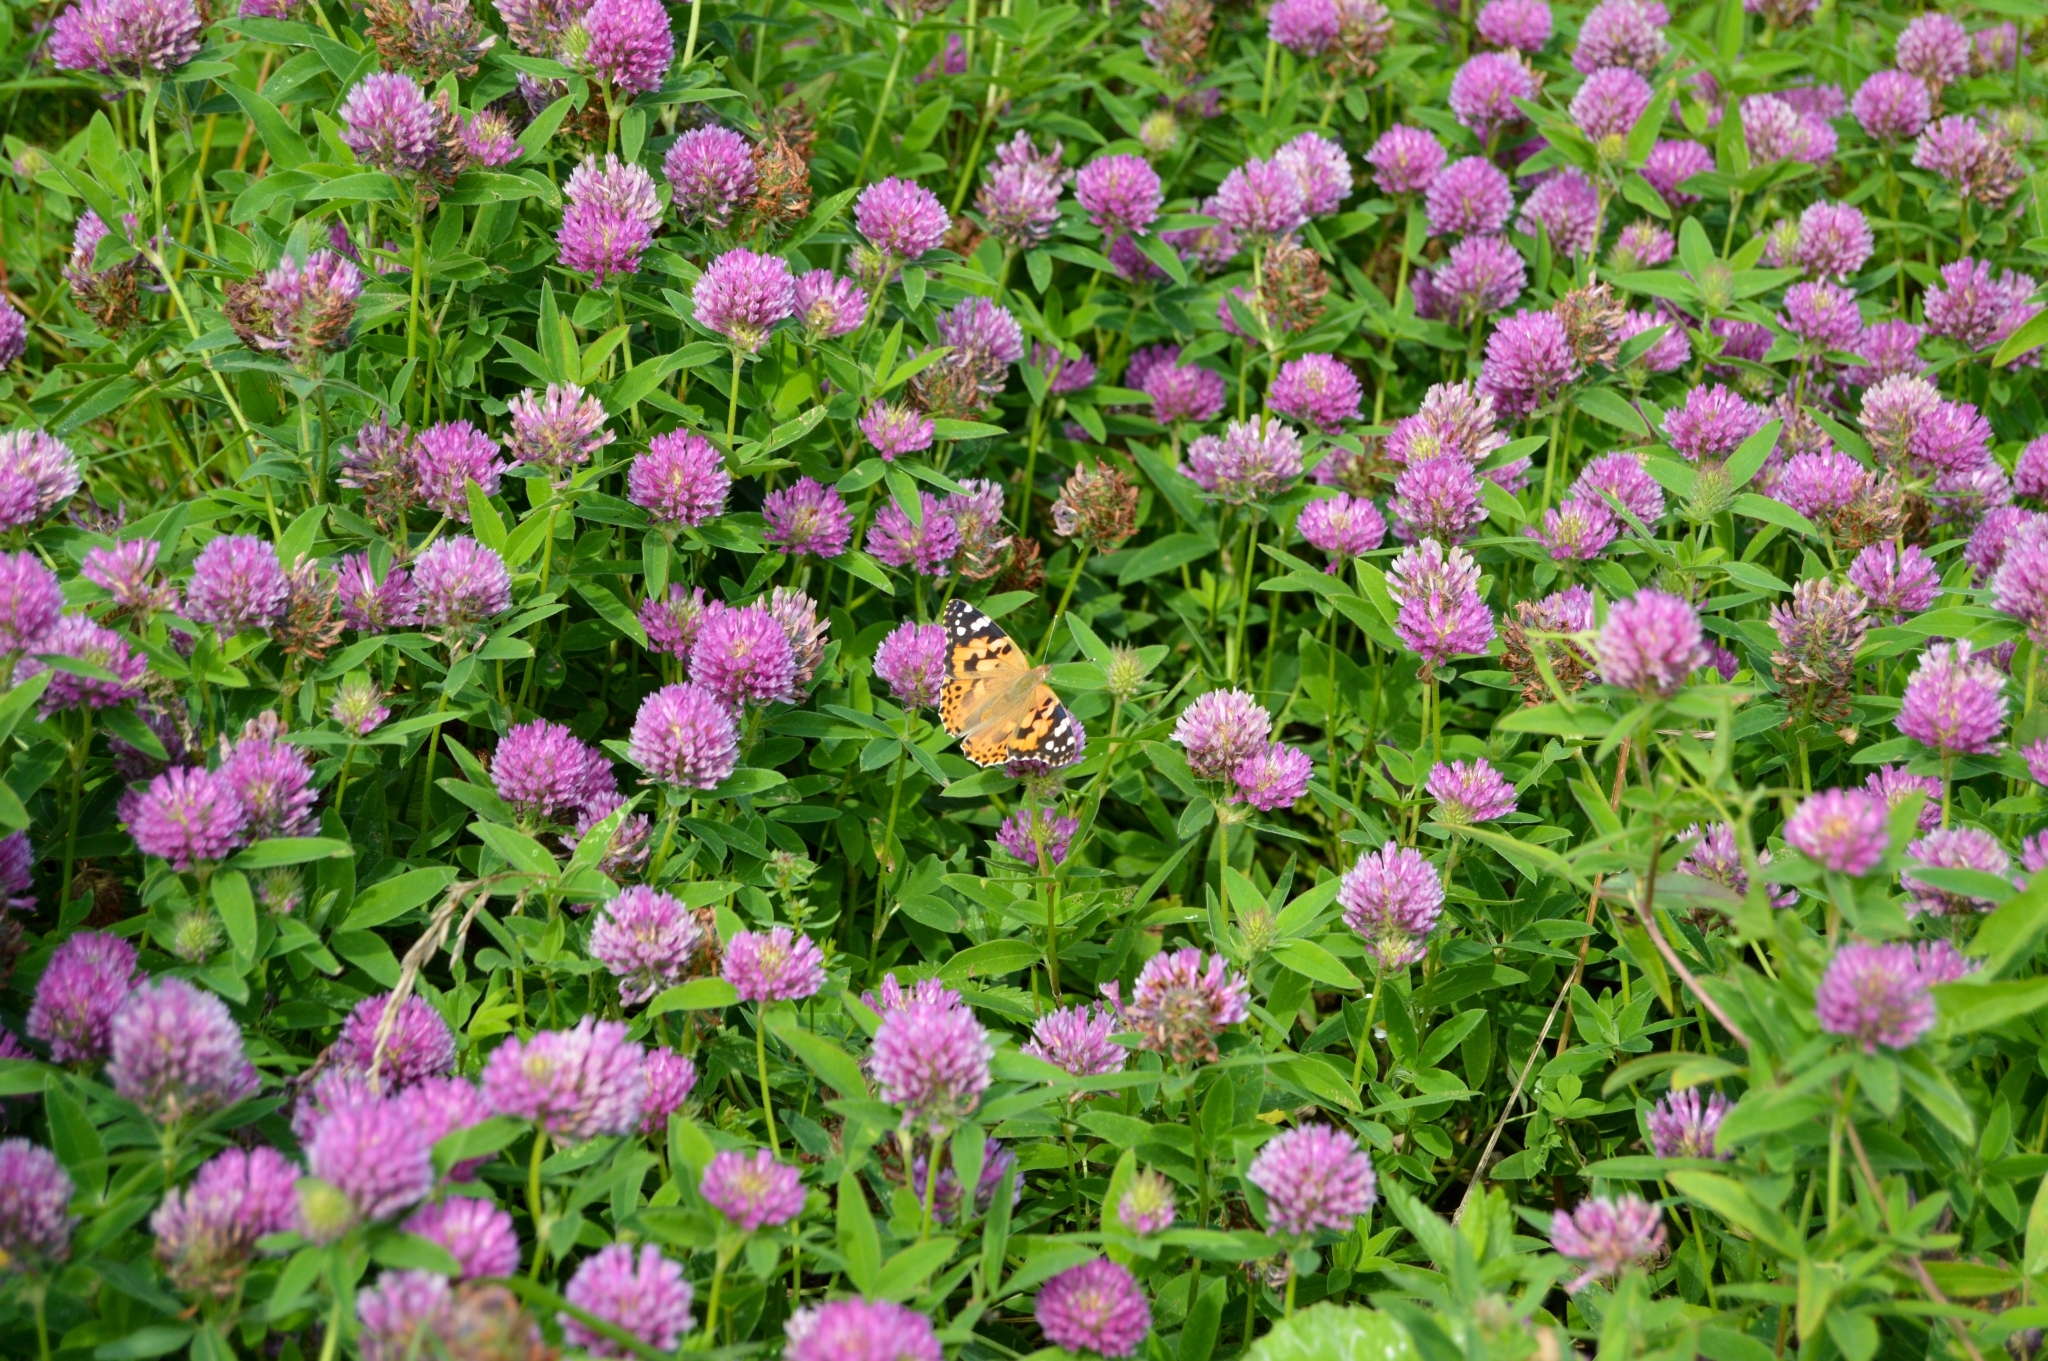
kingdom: Plantae
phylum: Tracheophyta
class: Magnoliopsida
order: Fabales
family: Fabaceae
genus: Trifolium
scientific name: Trifolium medium
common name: Zigzag clover
